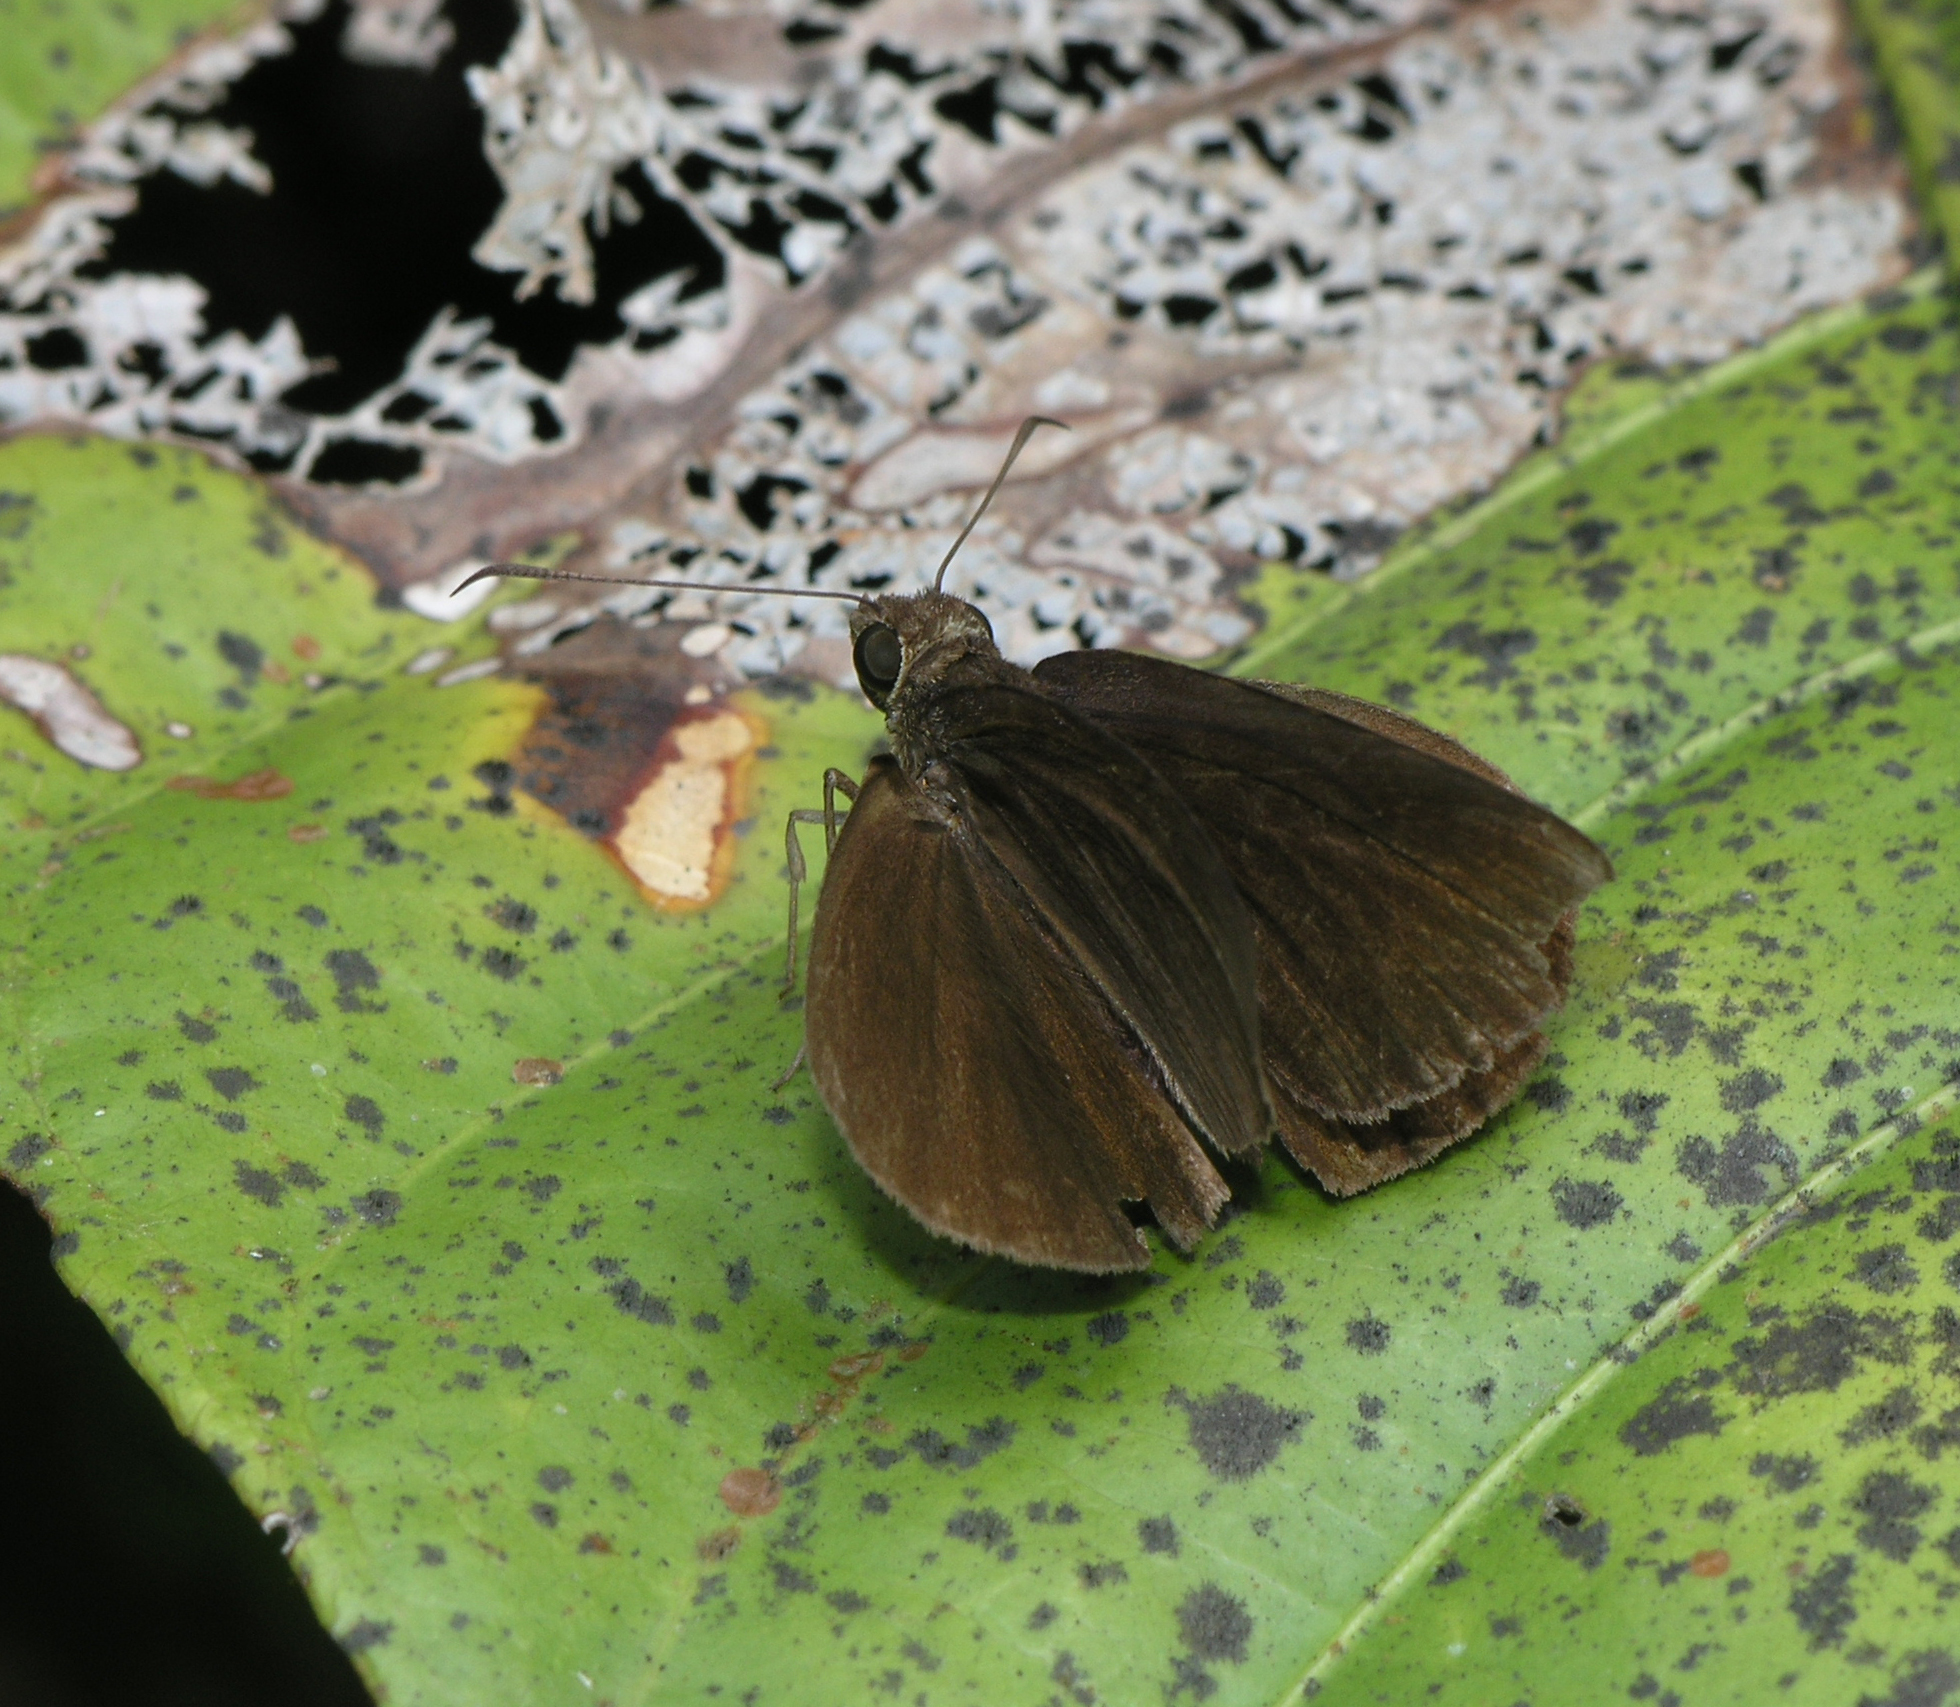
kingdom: Animalia
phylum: Arthropoda
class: Insecta
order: Lepidoptera
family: Hesperiidae
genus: Ancistroides
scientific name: Ancistroides nigrita
